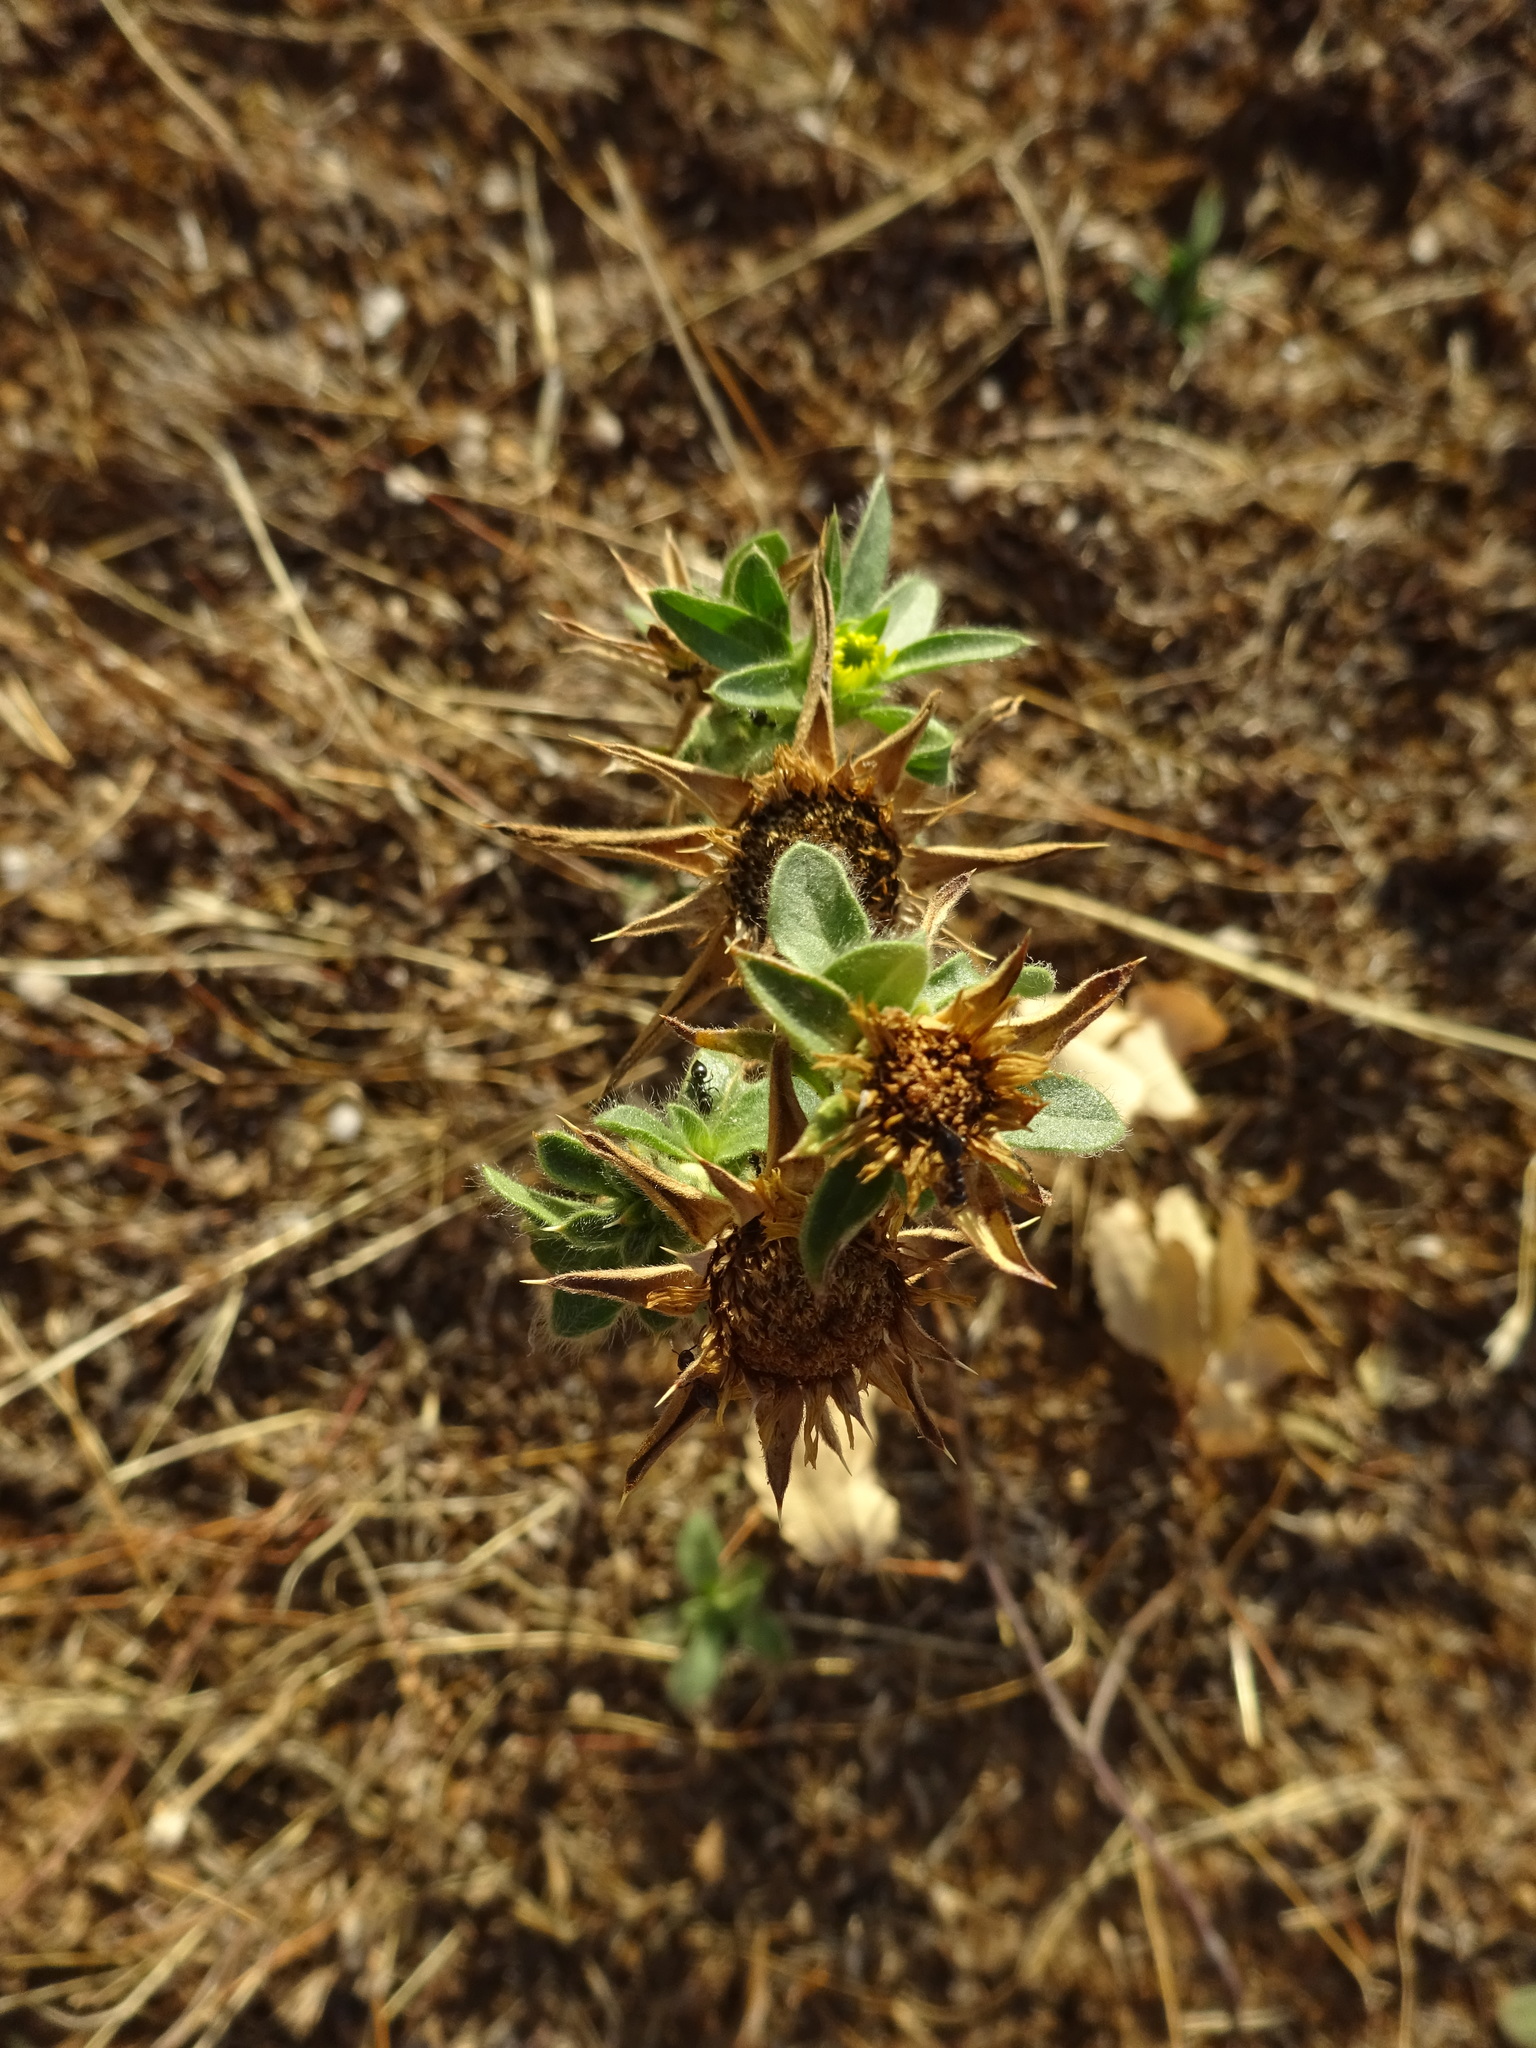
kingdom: Plantae
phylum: Tracheophyta
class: Magnoliopsida
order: Asterales
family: Asteraceae
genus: Pallenis
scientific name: Pallenis spinosa
